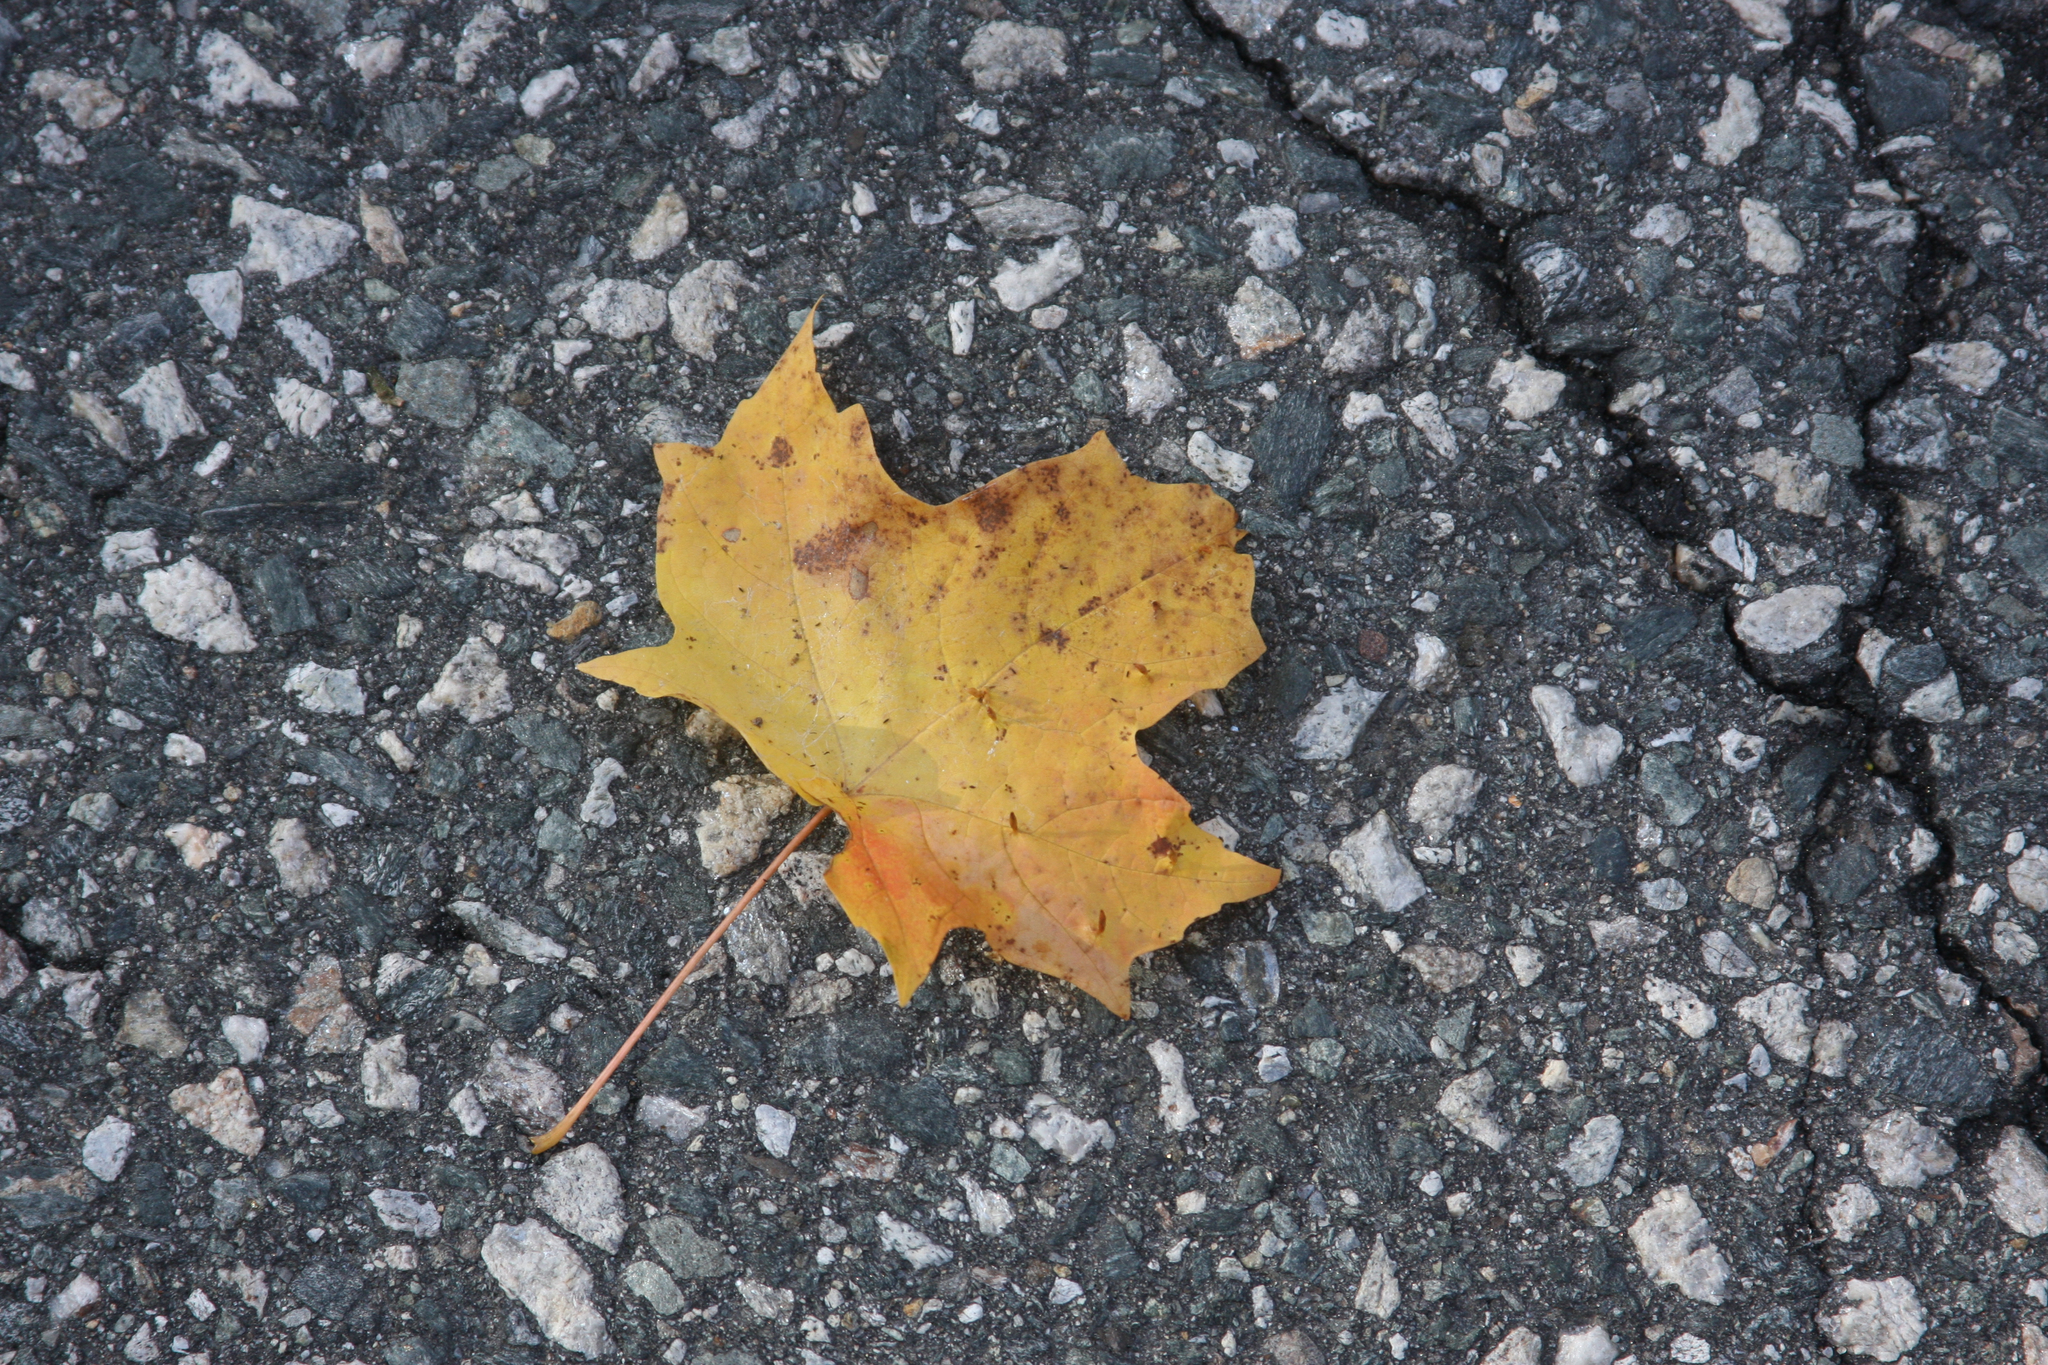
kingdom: Plantae
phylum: Tracheophyta
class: Magnoliopsida
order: Sapindales
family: Sapindaceae
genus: Acer
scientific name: Acer saccharum
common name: Sugar maple
